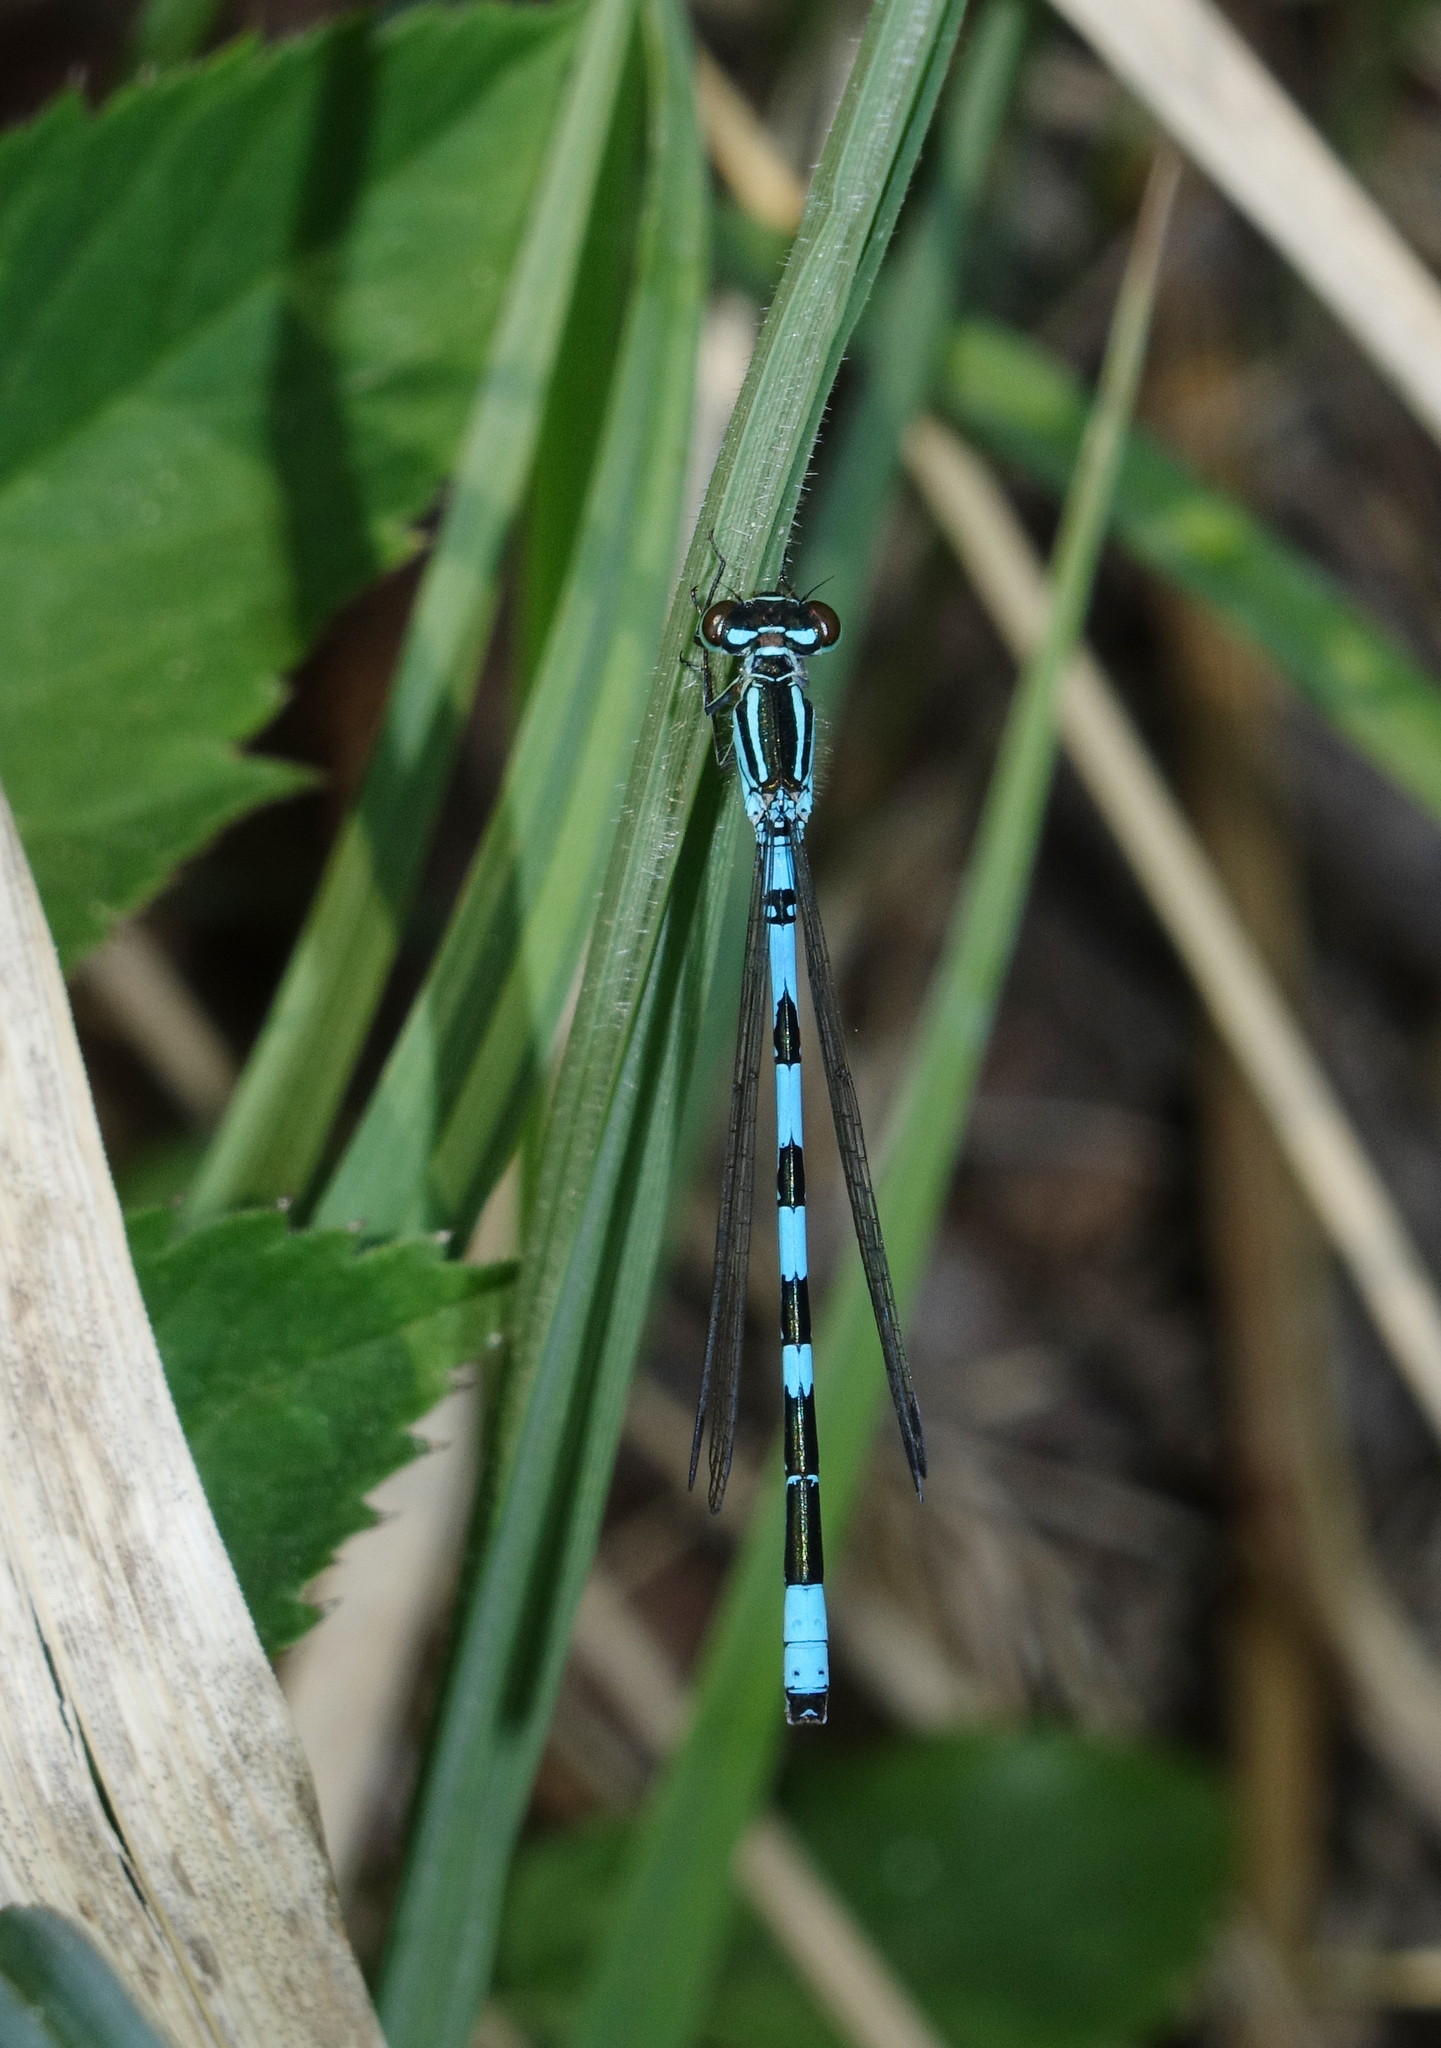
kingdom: Animalia
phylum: Arthropoda
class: Insecta
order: Odonata
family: Coenagrionidae
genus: Coenagrion
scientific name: Coenagrion hastulatum
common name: Spearhead bluet
